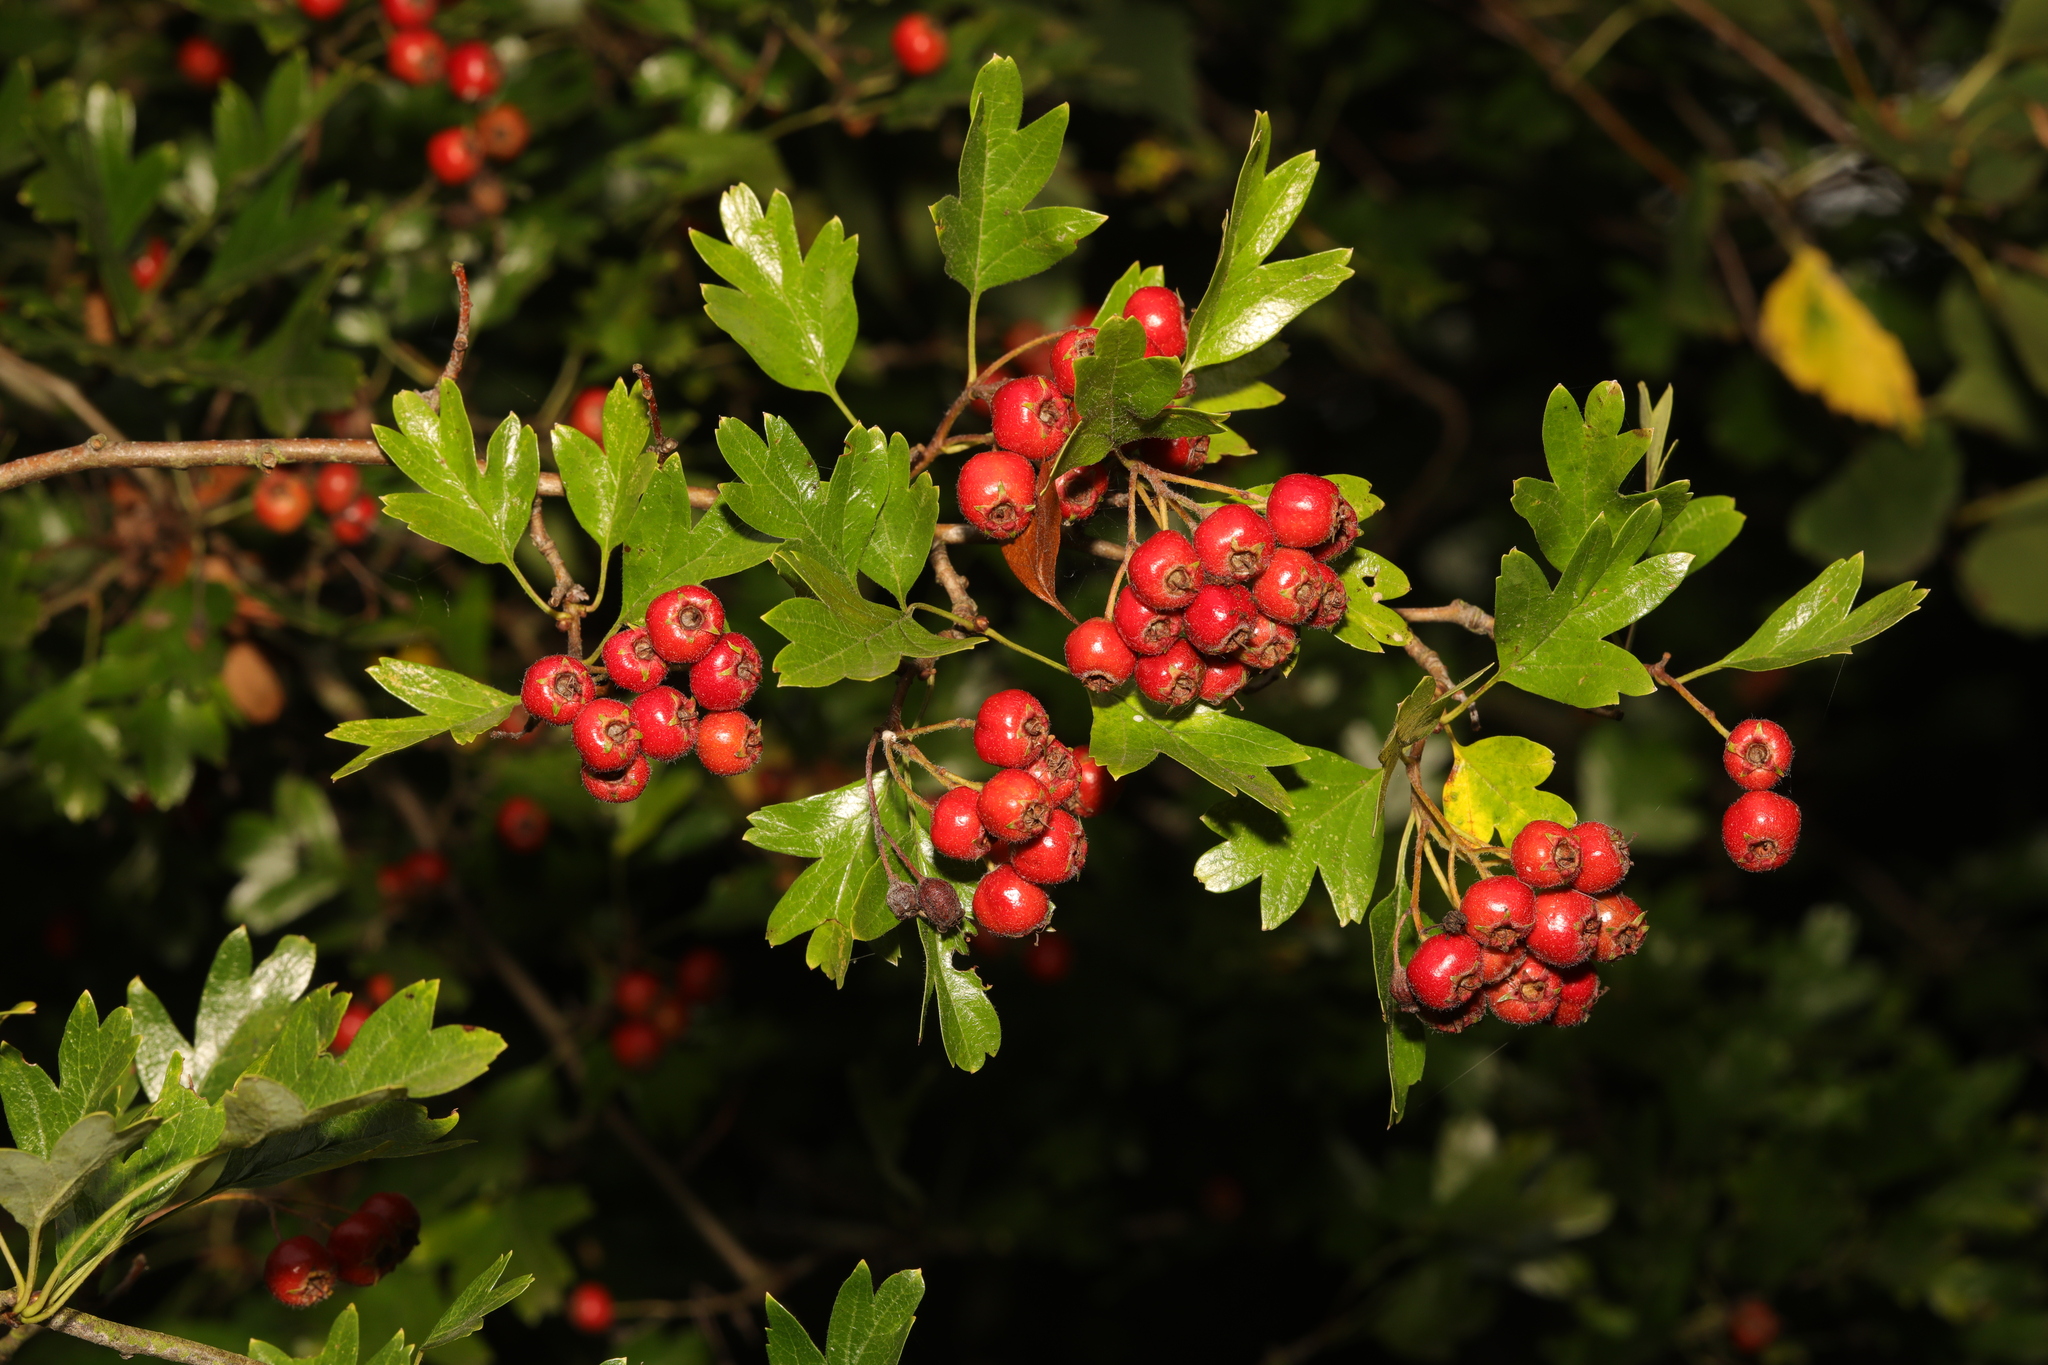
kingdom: Plantae
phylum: Tracheophyta
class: Magnoliopsida
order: Rosales
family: Rosaceae
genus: Crataegus
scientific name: Crataegus monogyna
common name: Hawthorn
